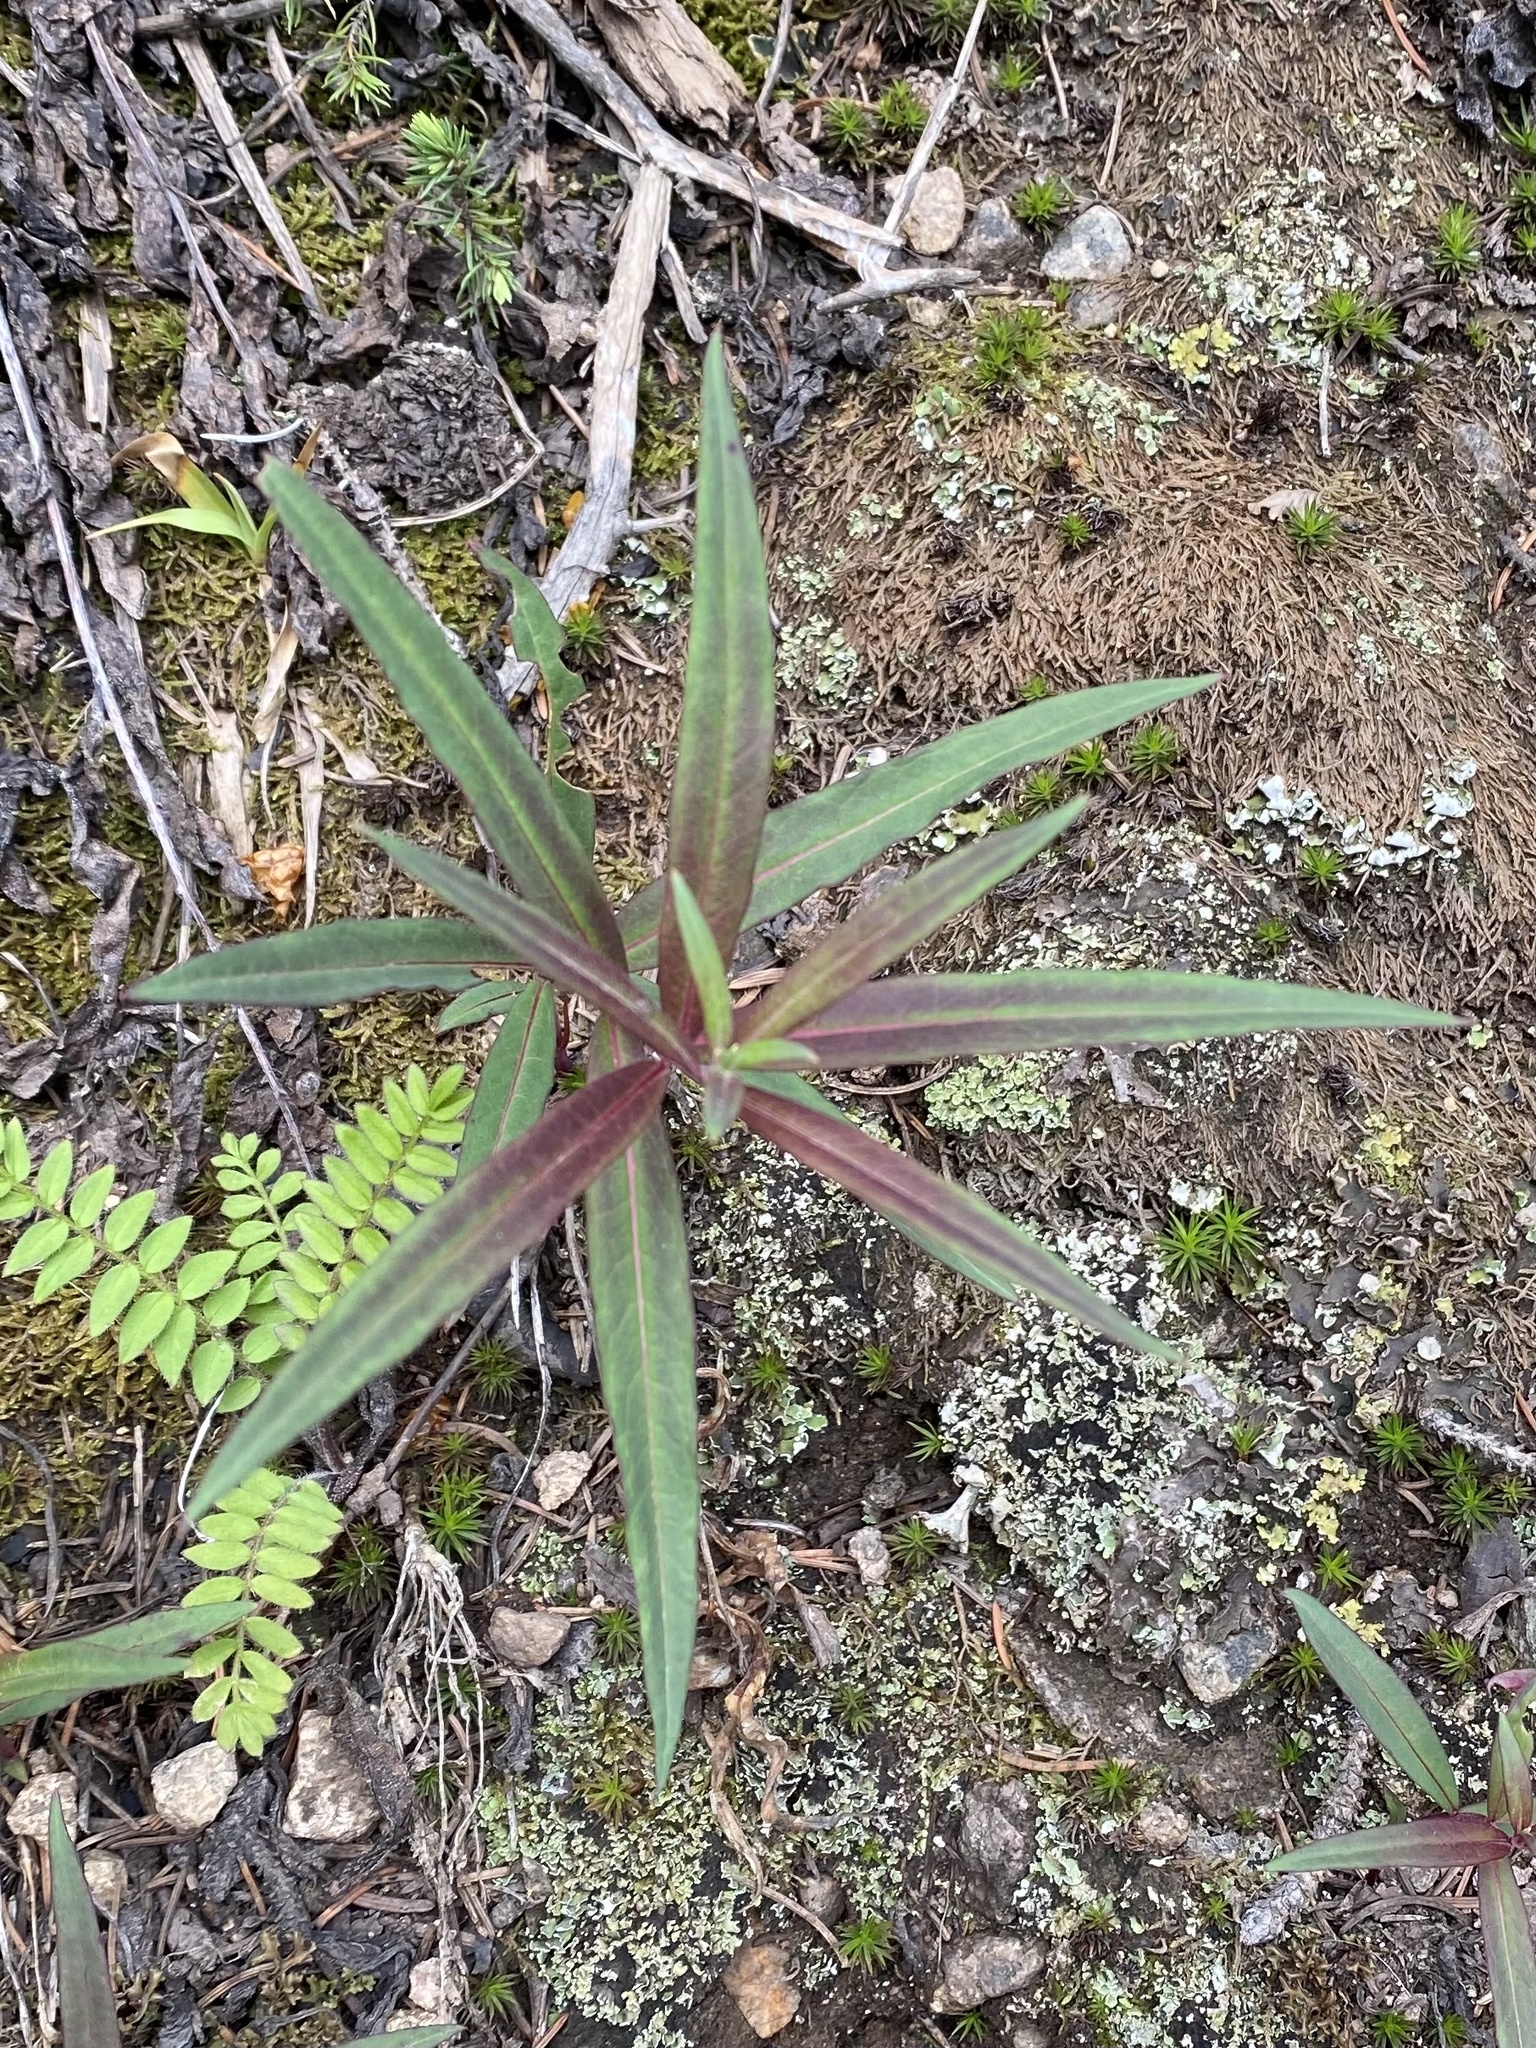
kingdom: Plantae
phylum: Tracheophyta
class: Magnoliopsida
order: Myrtales
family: Onagraceae
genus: Chamaenerion
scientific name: Chamaenerion angustifolium
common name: Fireweed
